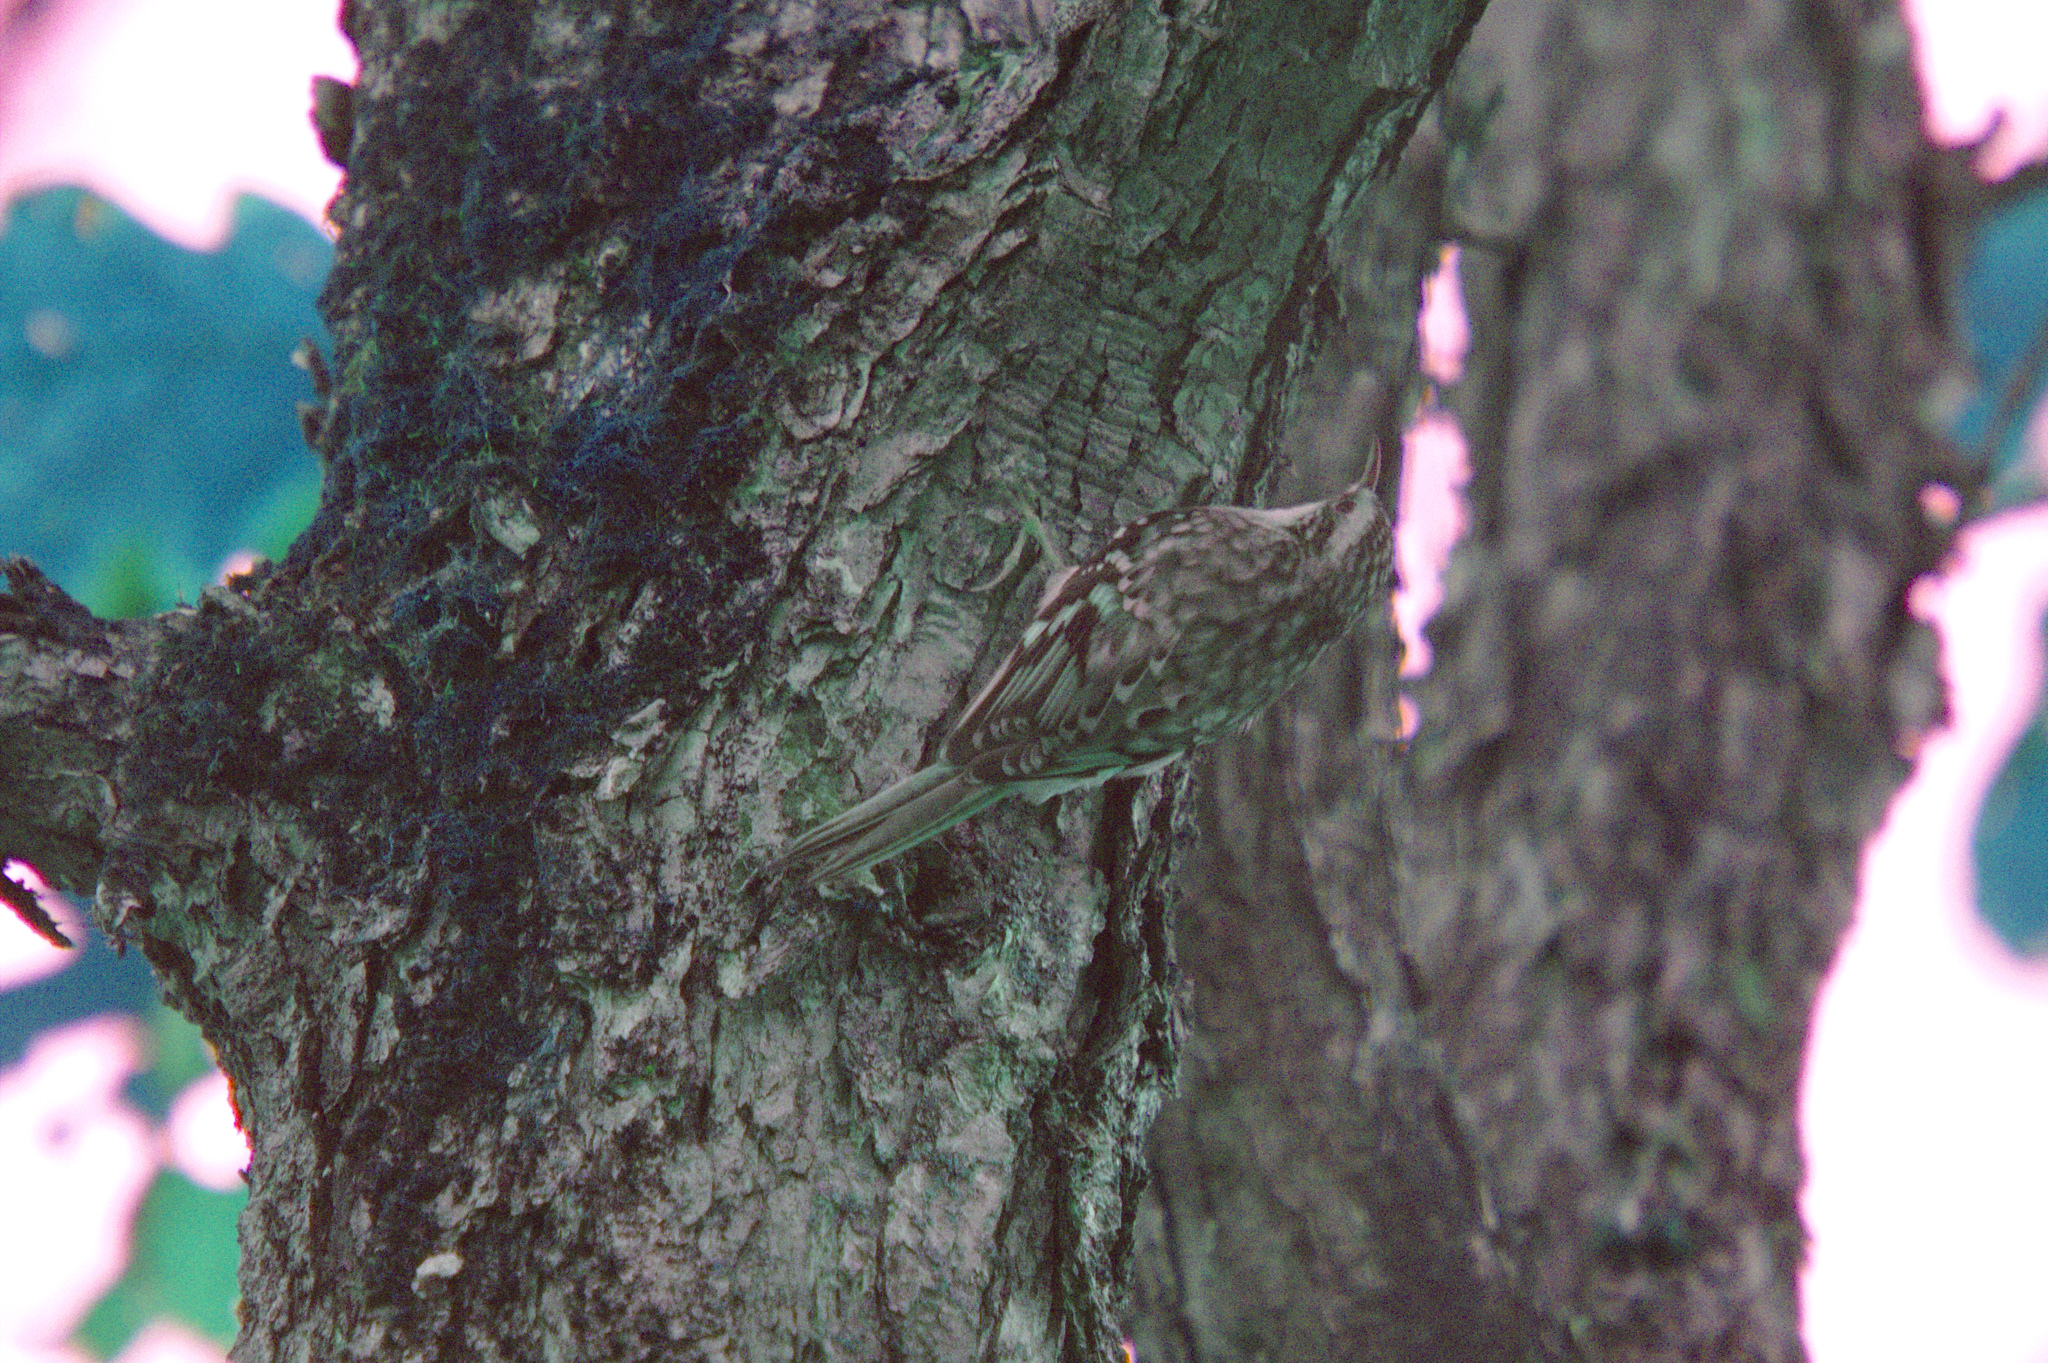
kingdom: Animalia
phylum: Chordata
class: Aves
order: Passeriformes
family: Certhiidae
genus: Certhia
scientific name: Certhia americana
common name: Brown creeper
